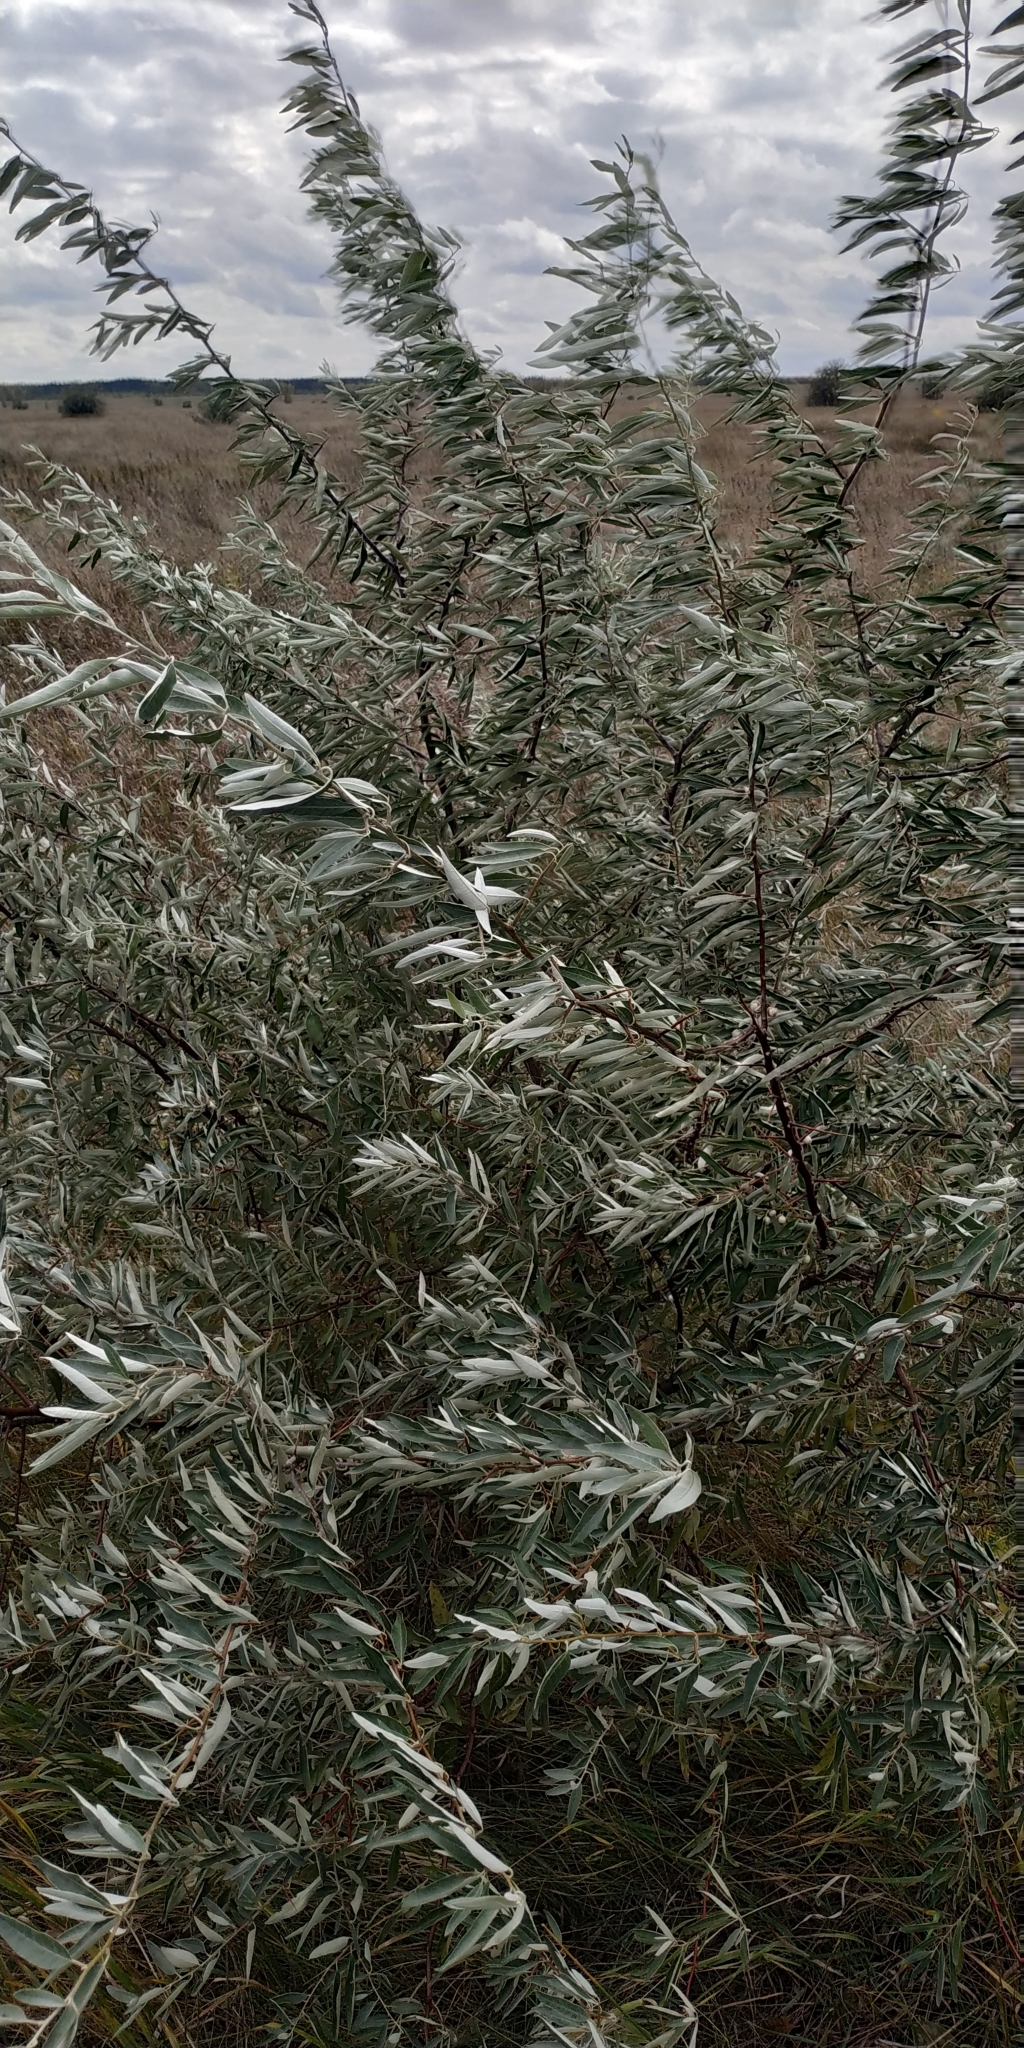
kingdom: Plantae
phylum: Tracheophyta
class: Magnoliopsida
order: Rosales
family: Elaeagnaceae
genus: Elaeagnus
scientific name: Elaeagnus angustifolia
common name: Russian olive
